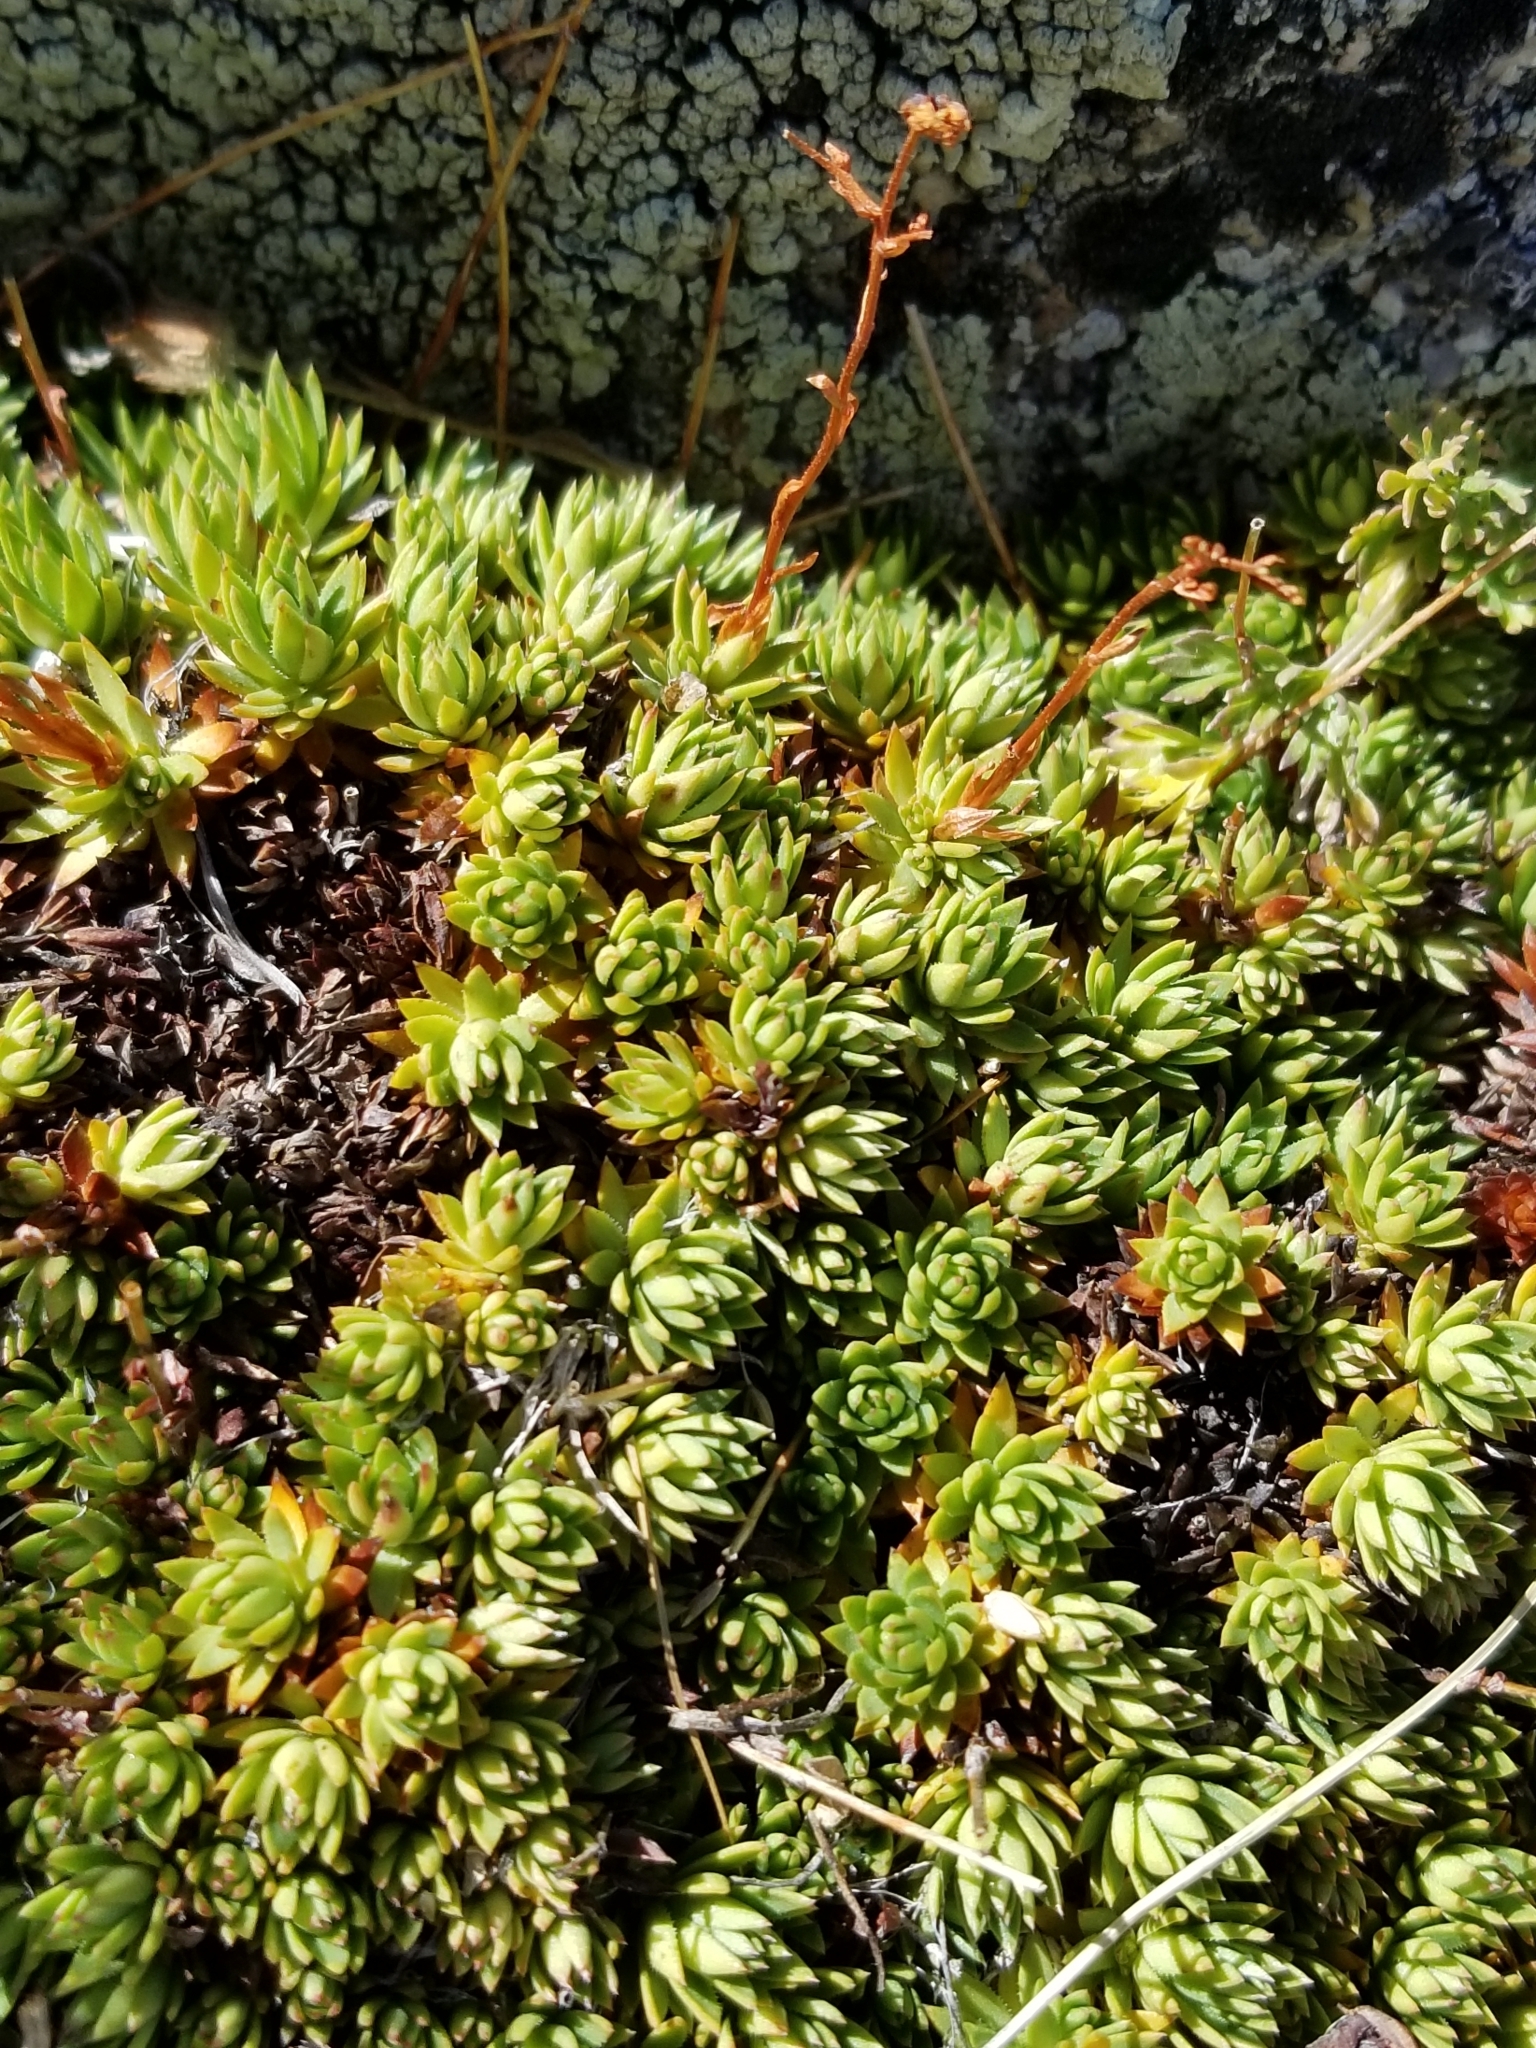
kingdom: Plantae
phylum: Tracheophyta
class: Magnoliopsida
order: Saxifragales
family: Saxifragaceae
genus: Saxifraga
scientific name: Saxifraga bronchialis
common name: Matted saxifrage
